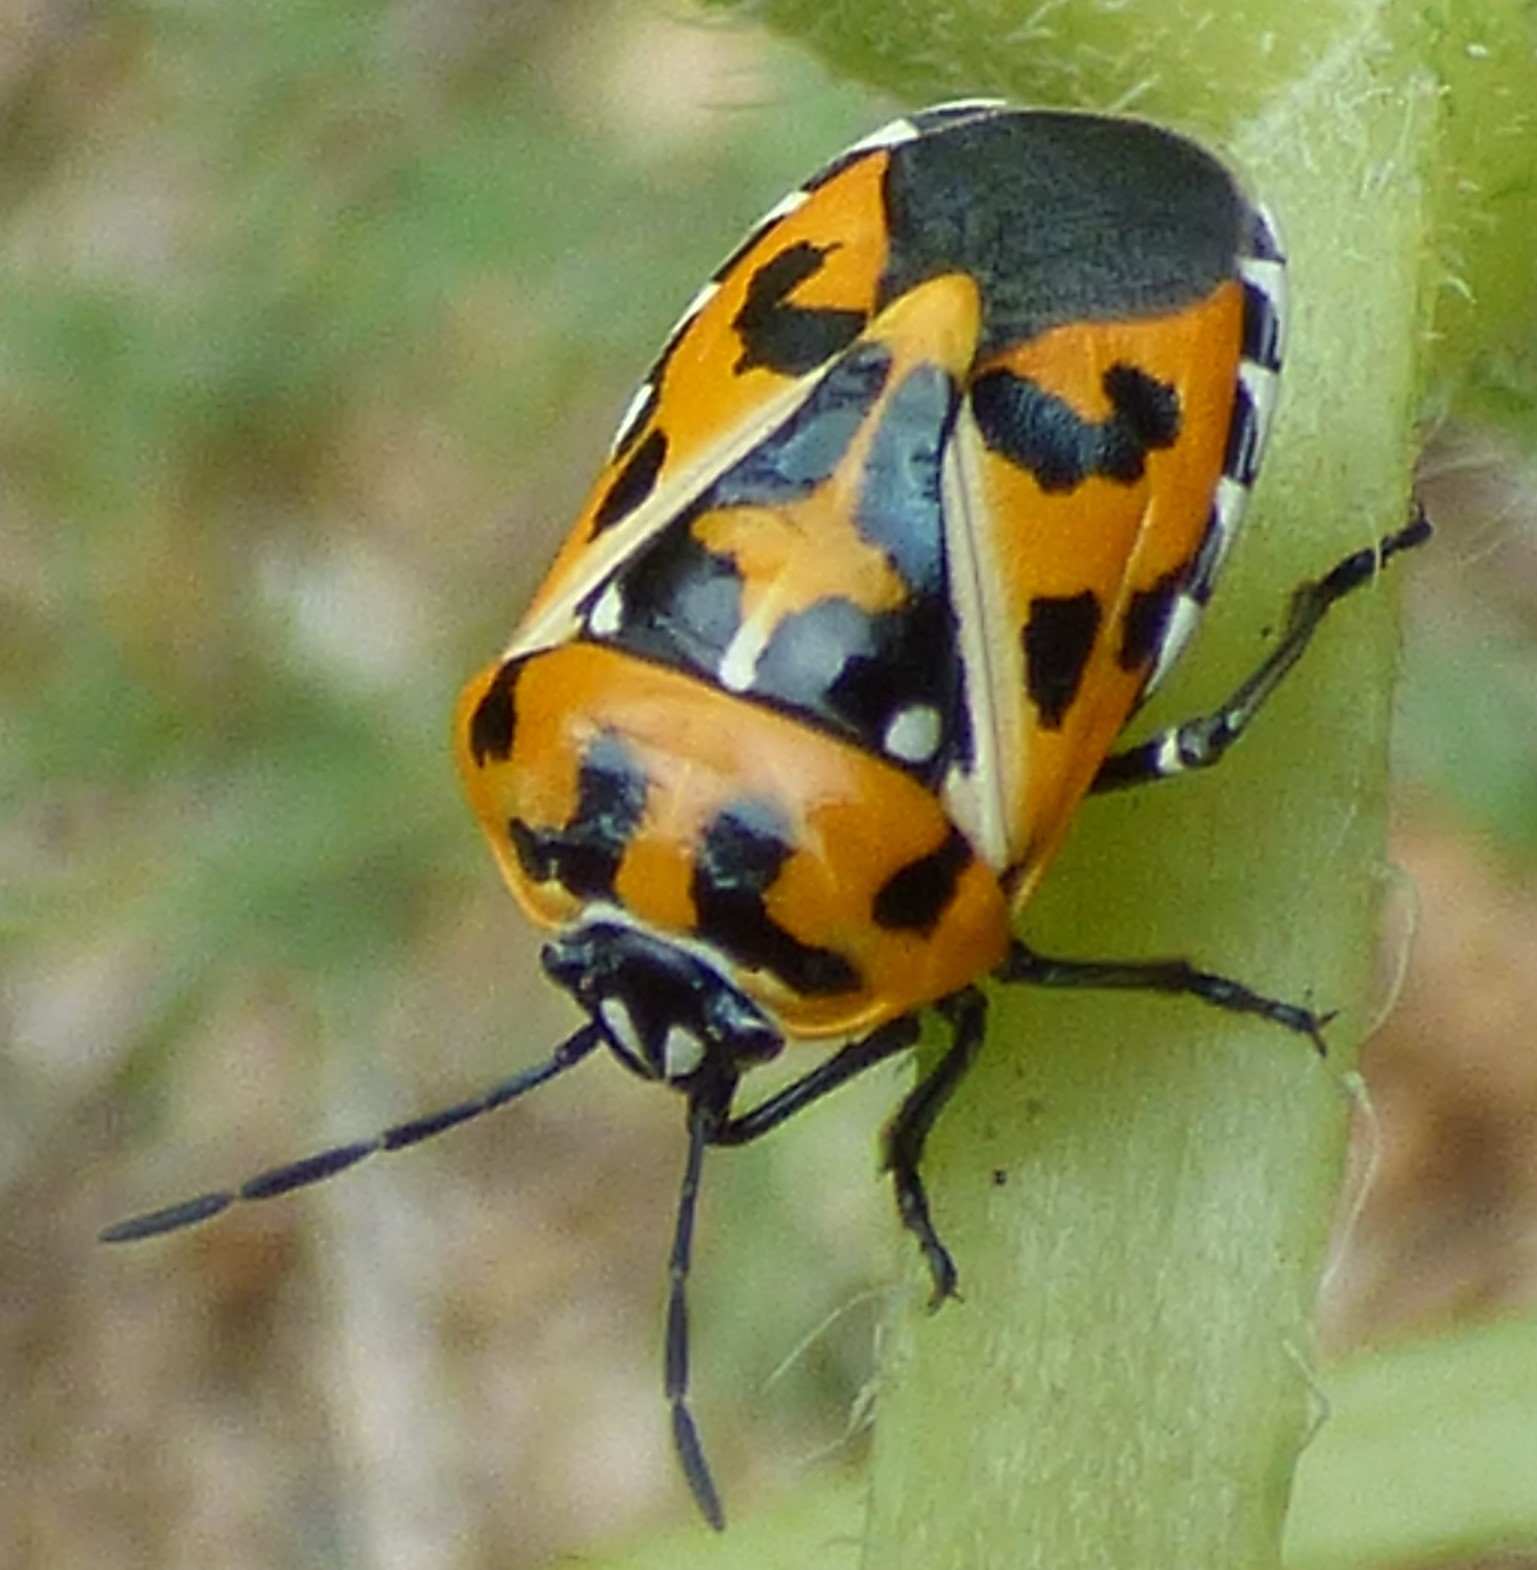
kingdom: Animalia
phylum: Arthropoda
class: Insecta
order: Hemiptera
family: Pentatomidae
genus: Murgantia
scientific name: Murgantia histrionica
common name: Harlequin bug
